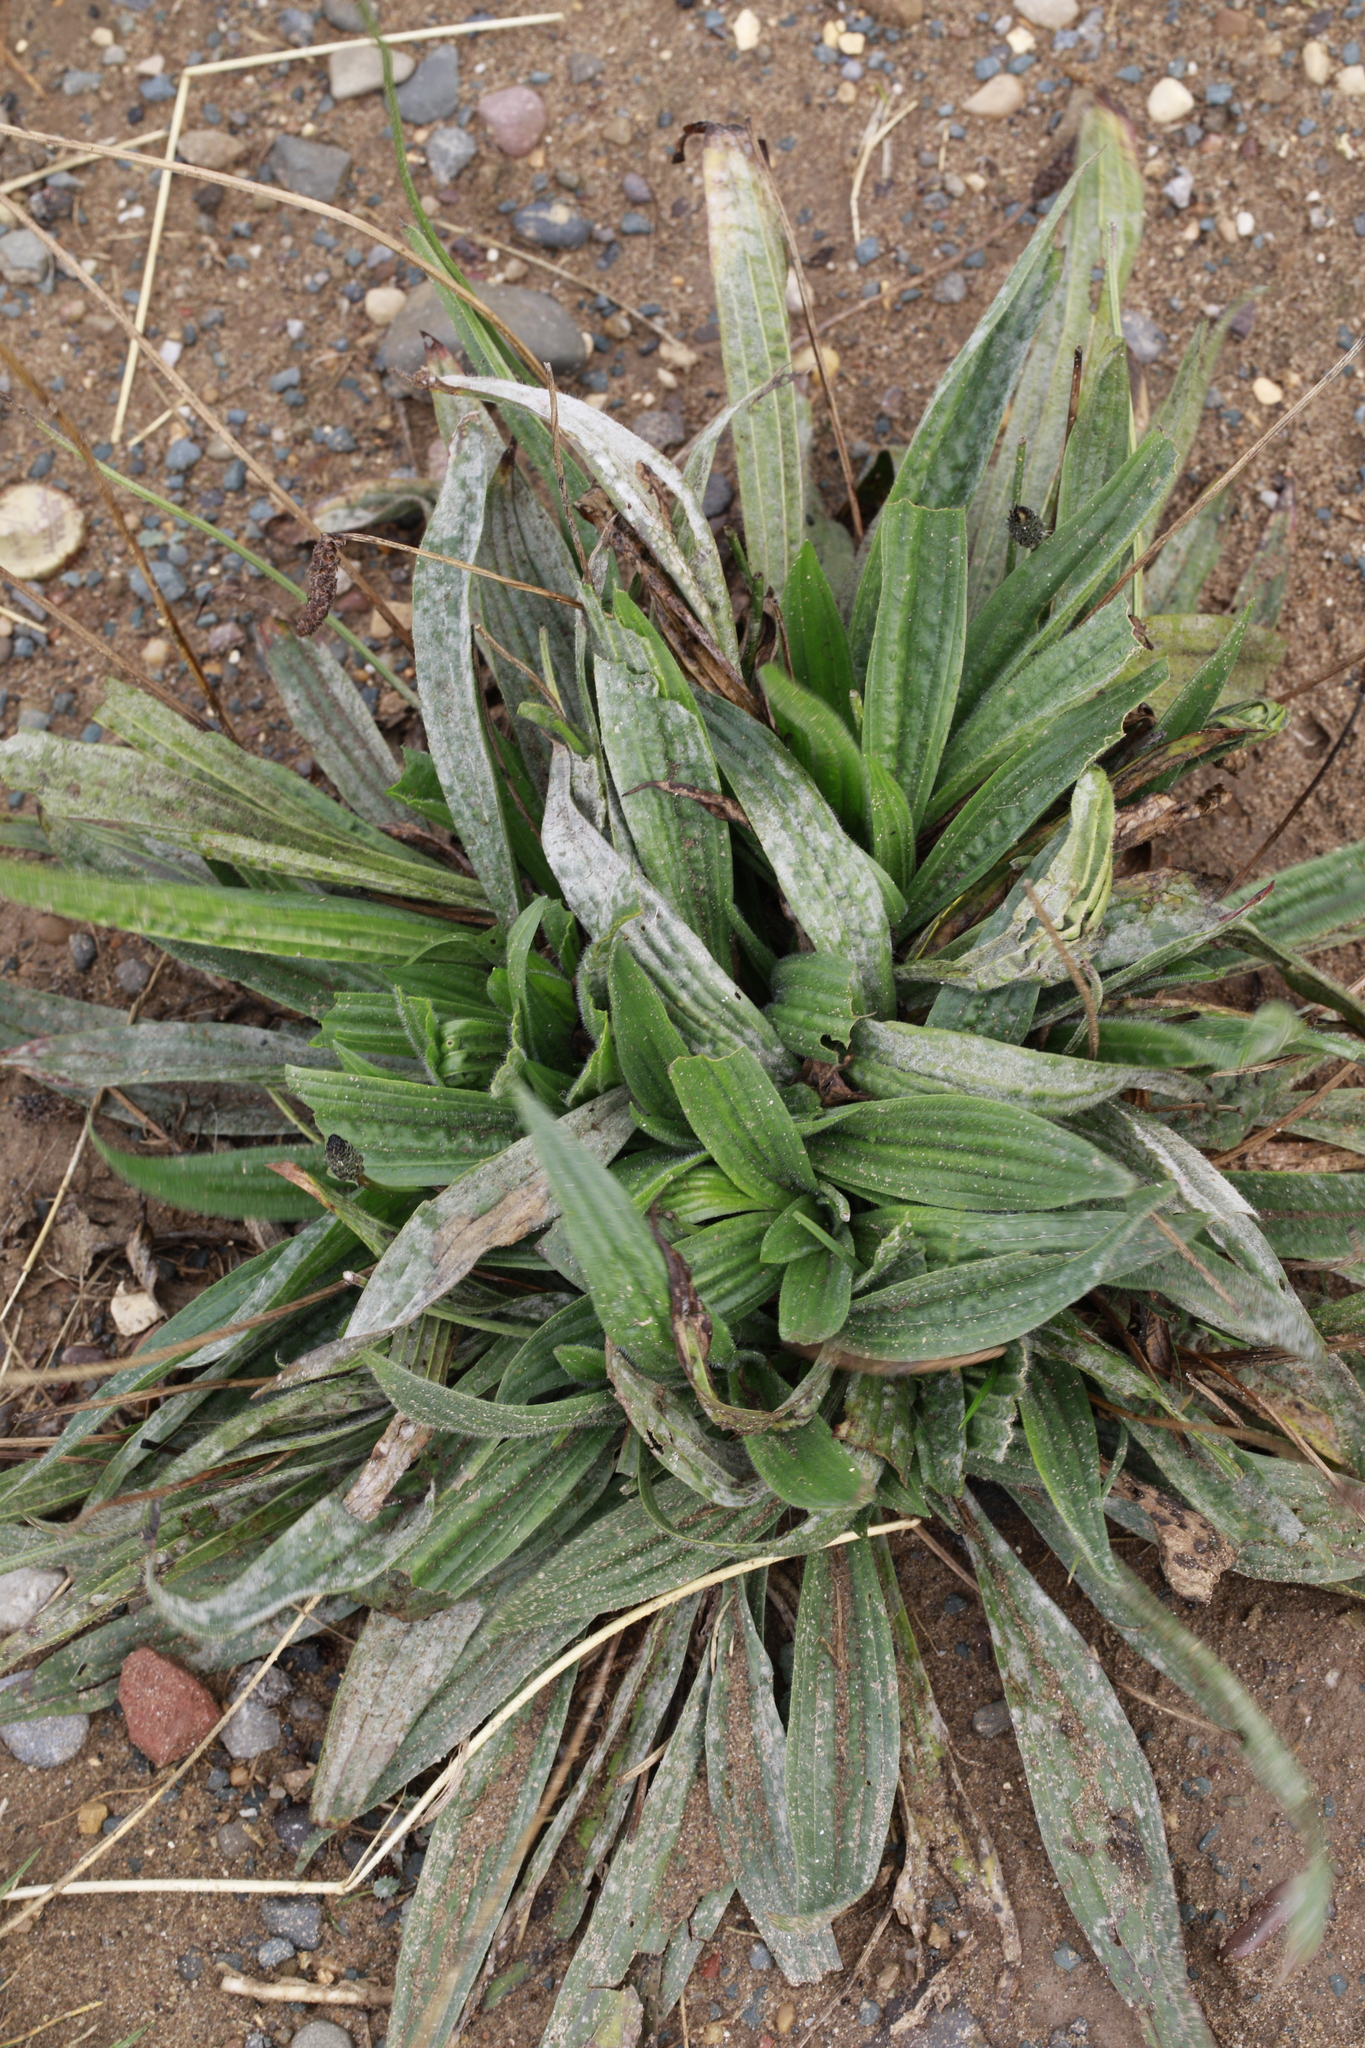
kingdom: Fungi
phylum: Ascomycota
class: Leotiomycetes
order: Helotiales
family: Erysiphaceae
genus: Golovinomyces
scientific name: Golovinomyces sordidus
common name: Plantain mildew
